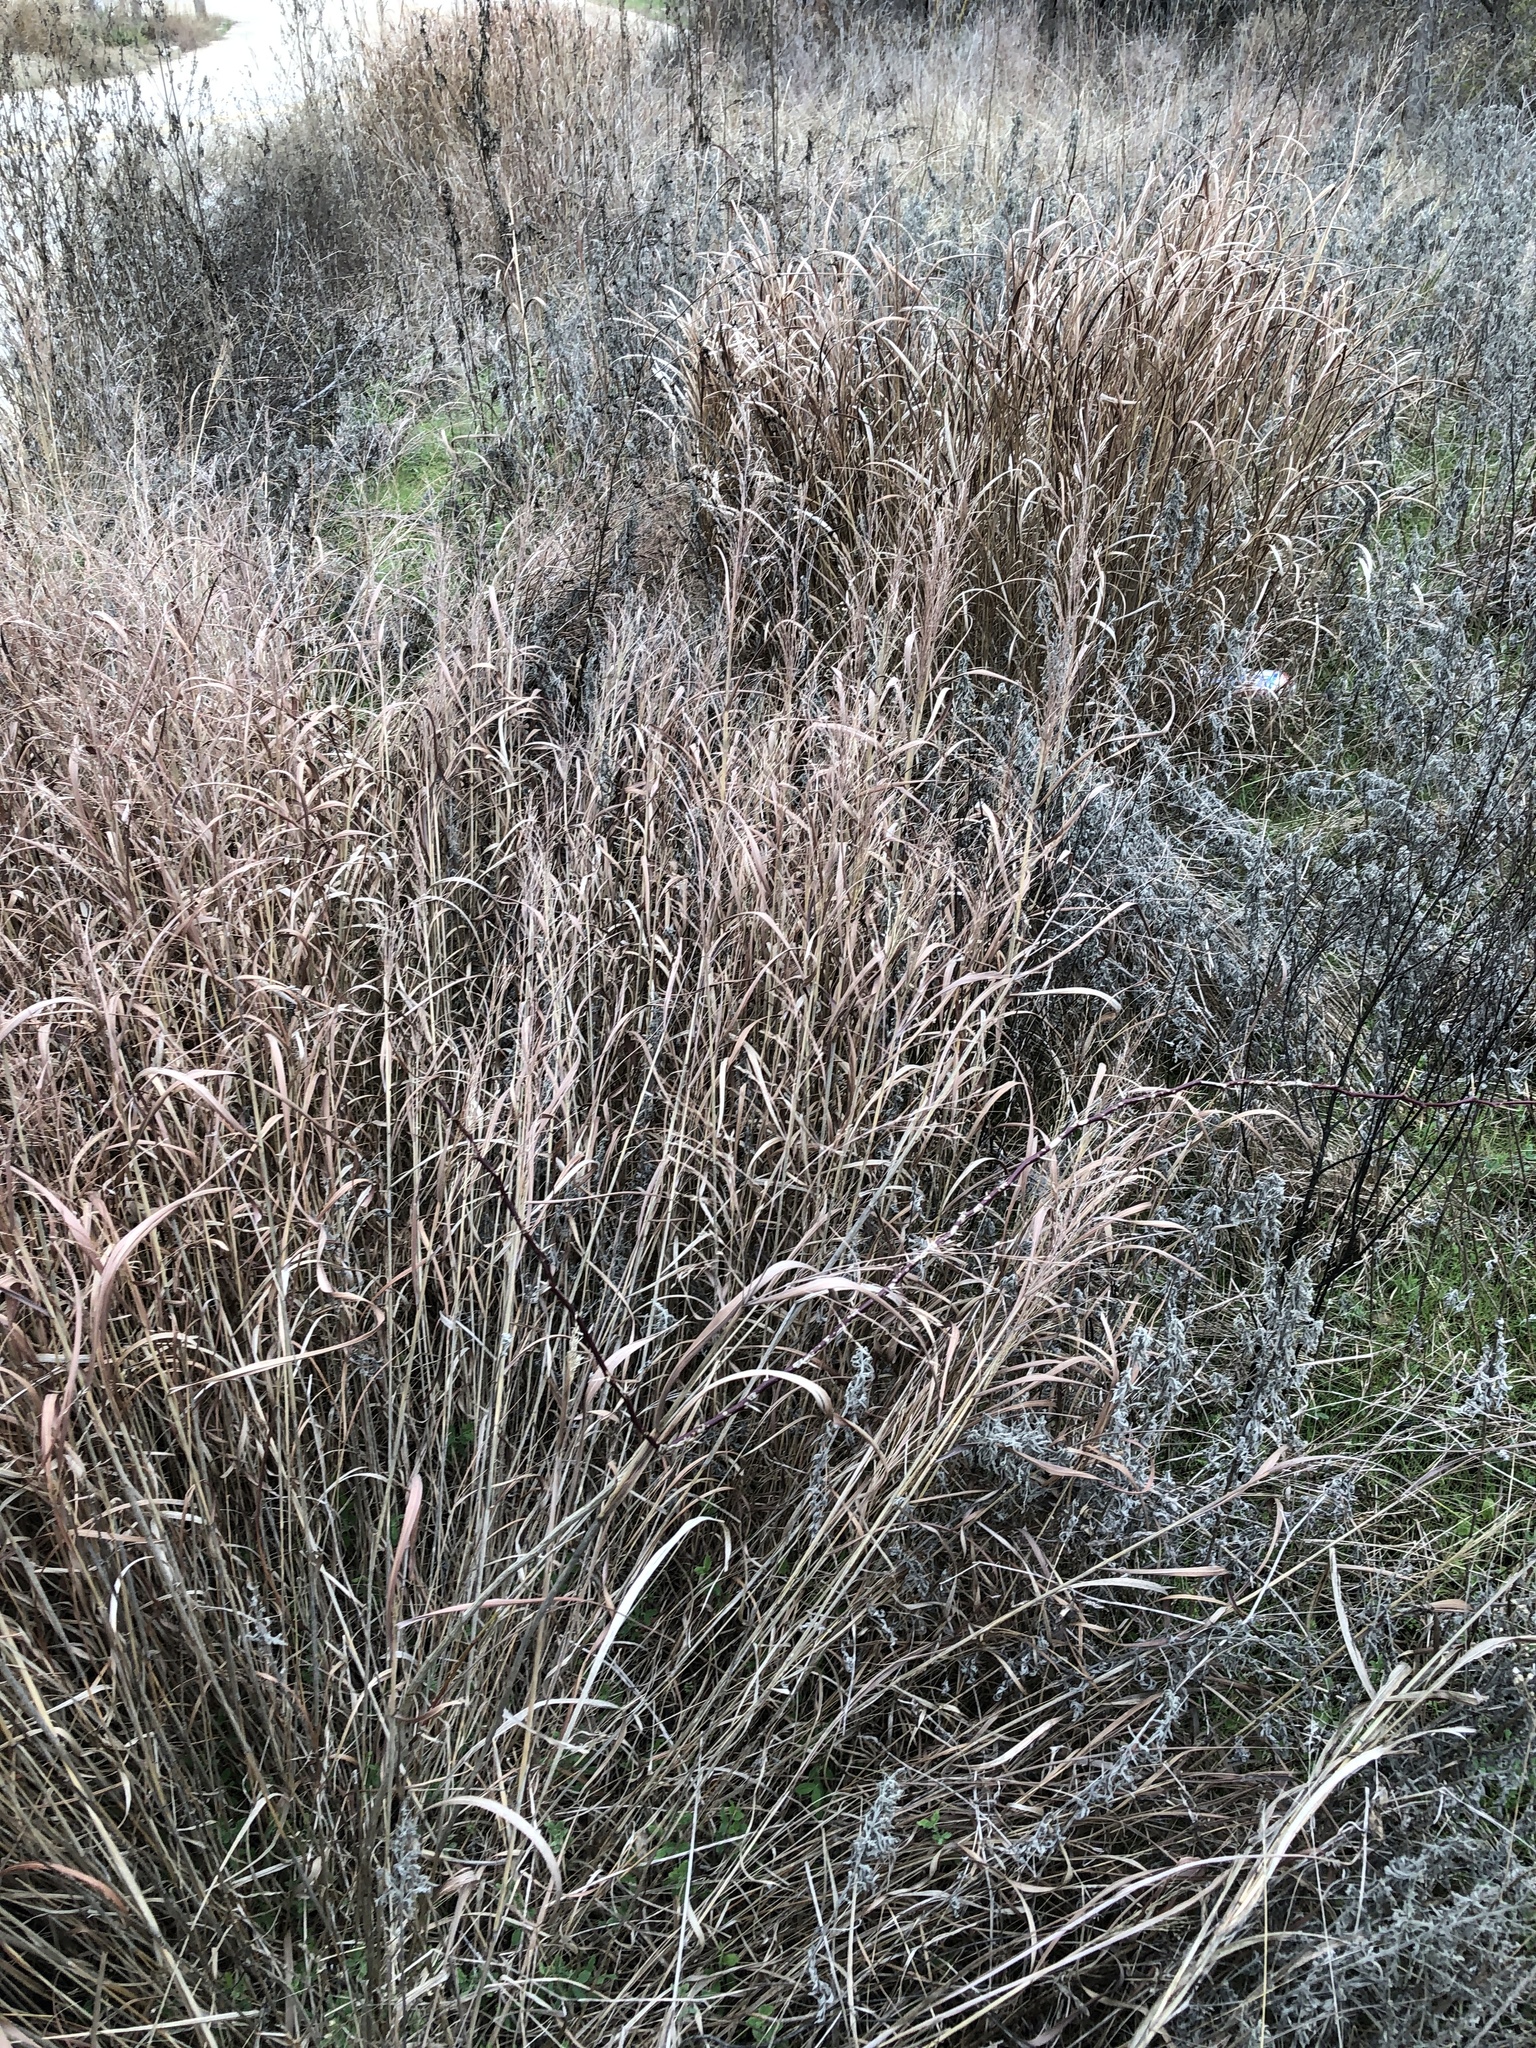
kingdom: Plantae
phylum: Tracheophyta
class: Liliopsida
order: Poales
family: Poaceae
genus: Panicum
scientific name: Panicum virgatum
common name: Switchgrass
